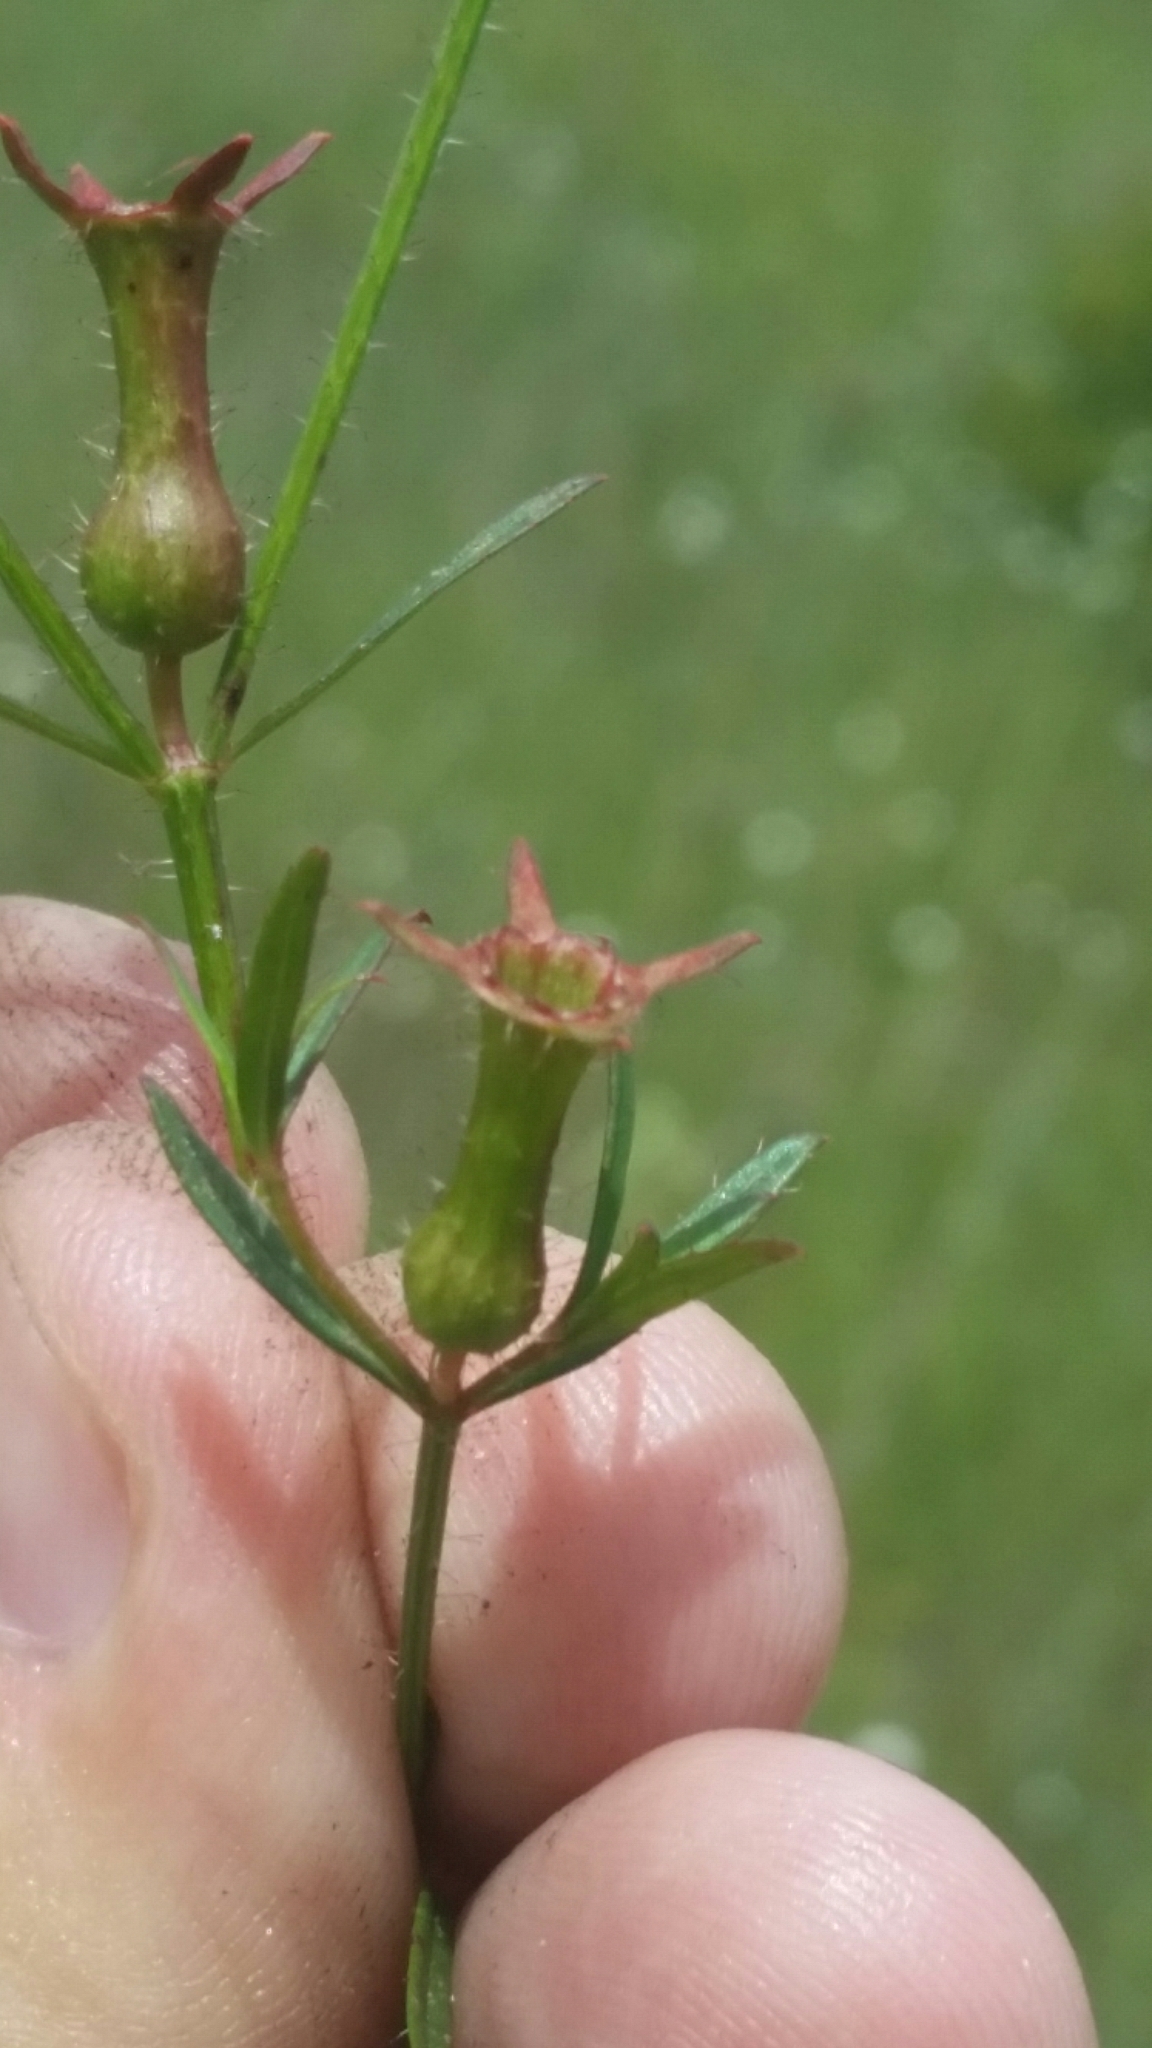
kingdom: Plantae
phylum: Tracheophyta
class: Magnoliopsida
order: Myrtales
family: Melastomataceae
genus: Rhexia
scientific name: Rhexia cubensis
